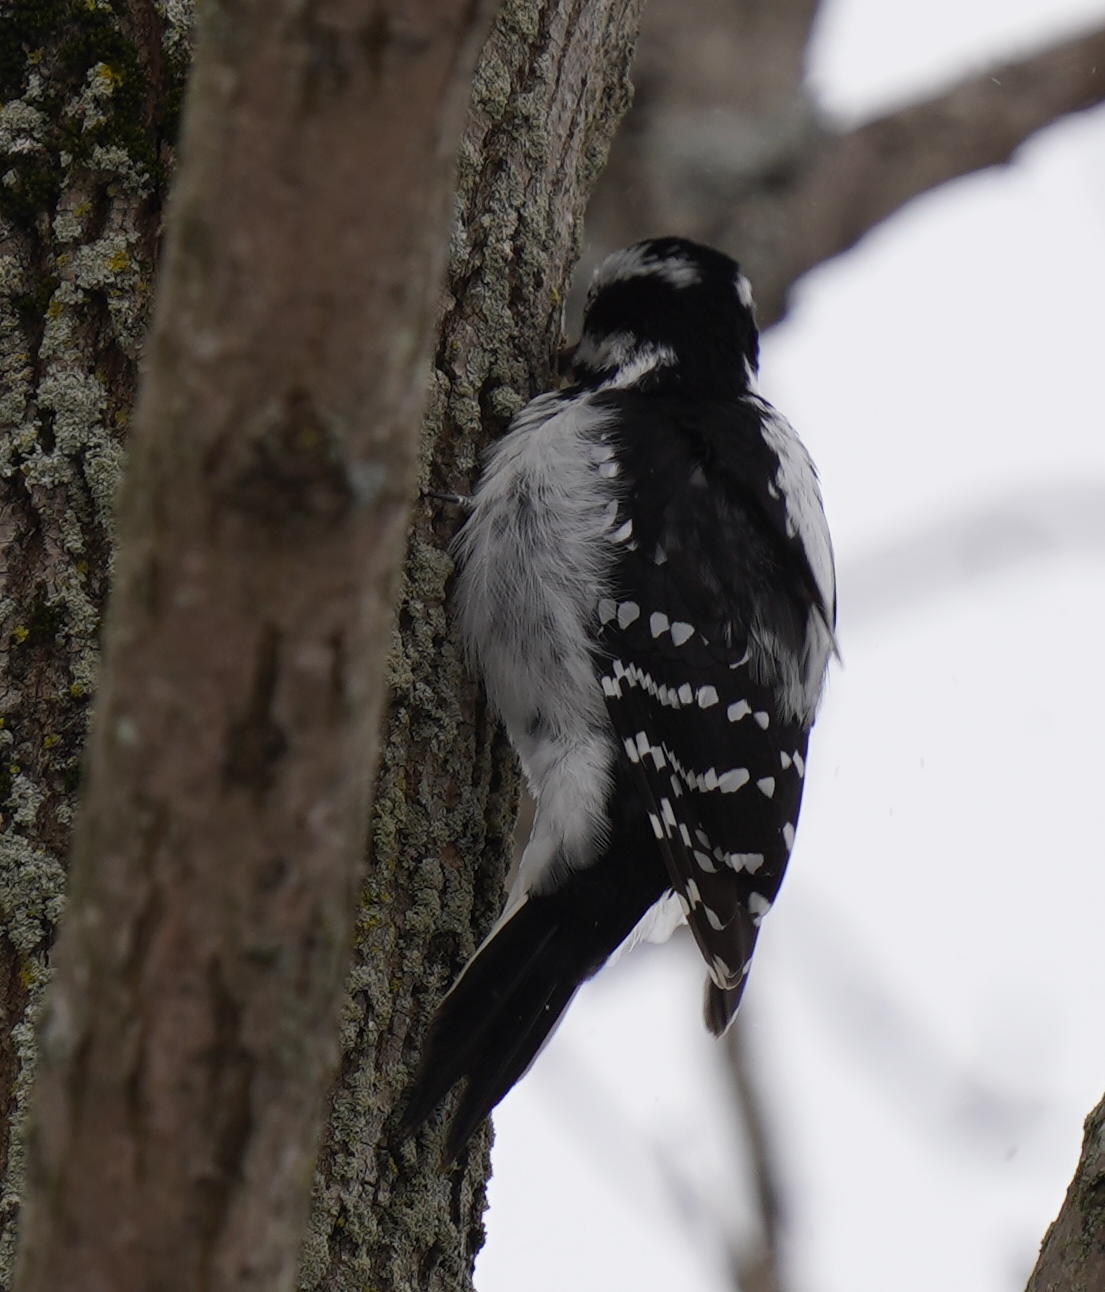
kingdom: Animalia
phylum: Chordata
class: Aves
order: Piciformes
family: Picidae
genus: Leuconotopicus
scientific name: Leuconotopicus villosus
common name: Hairy woodpecker
